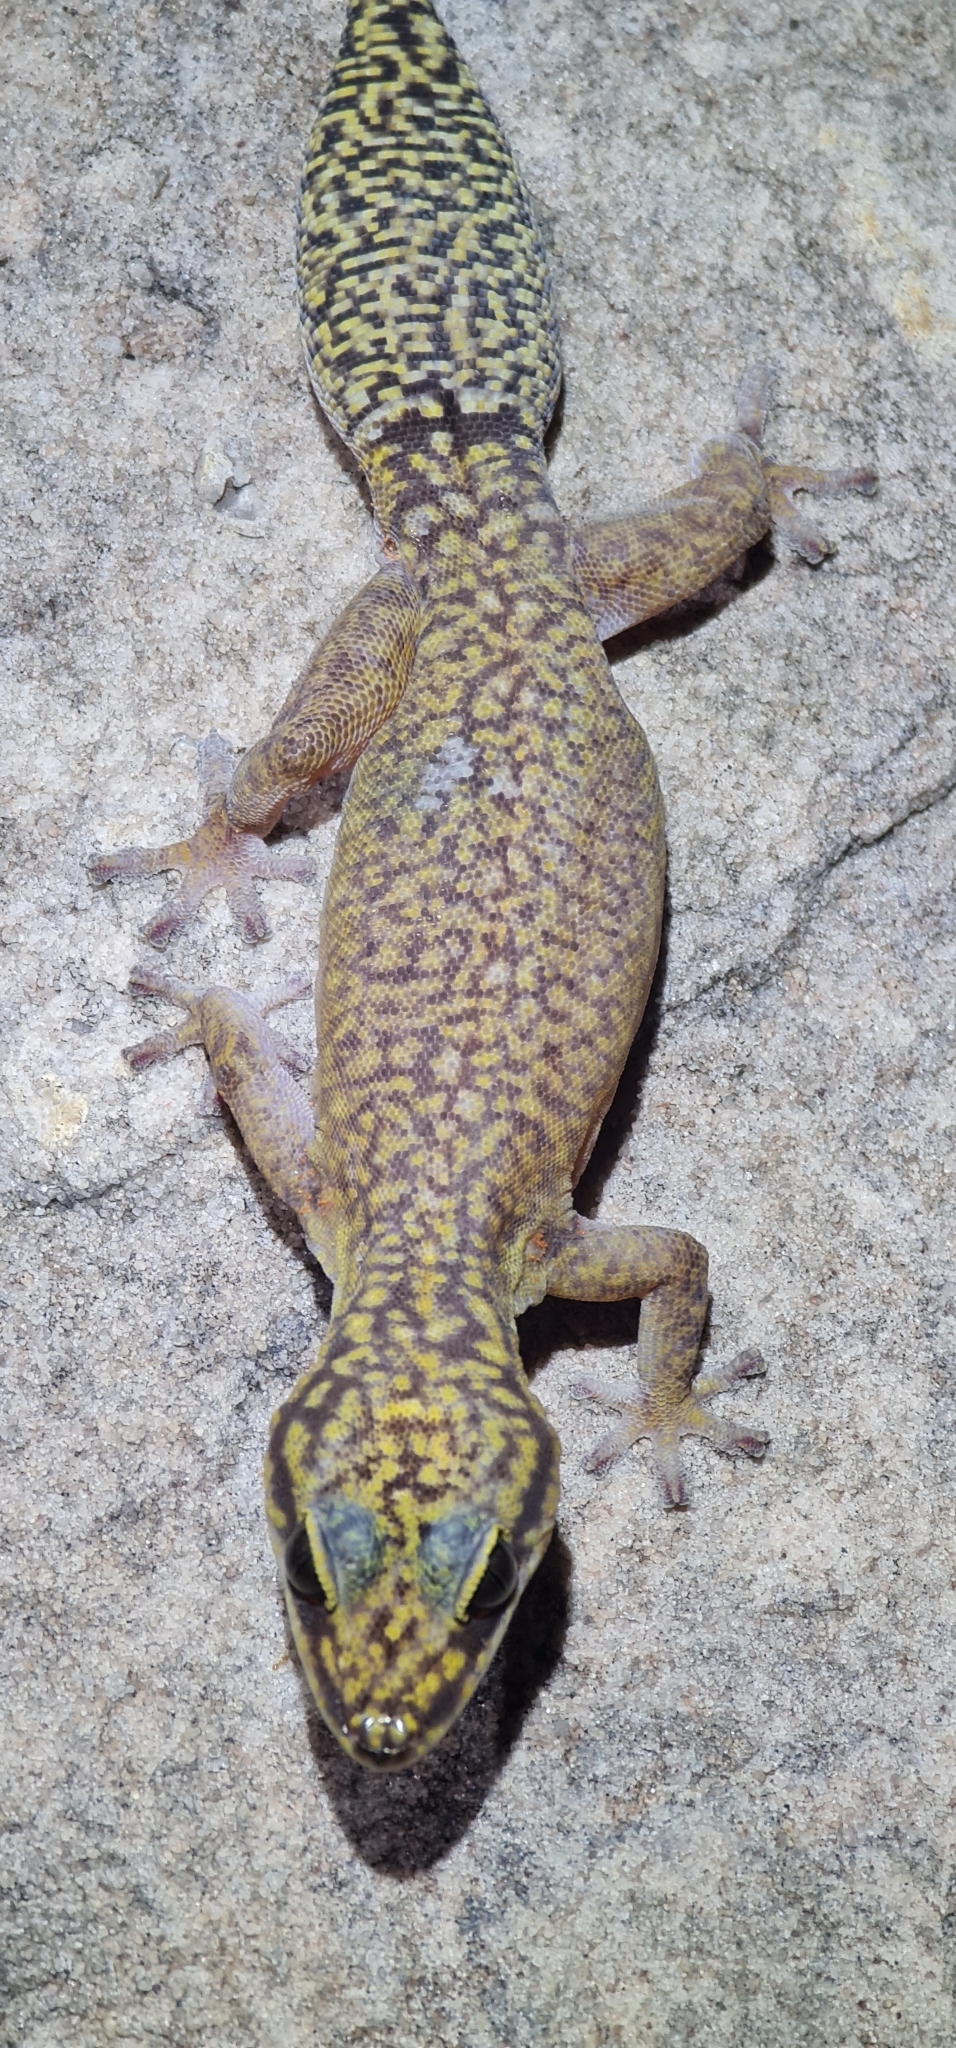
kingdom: Animalia
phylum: Chordata
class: Squamata
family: Diplodactylidae
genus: Oedura
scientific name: Oedura gemmata
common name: Dotted velvet gecko
